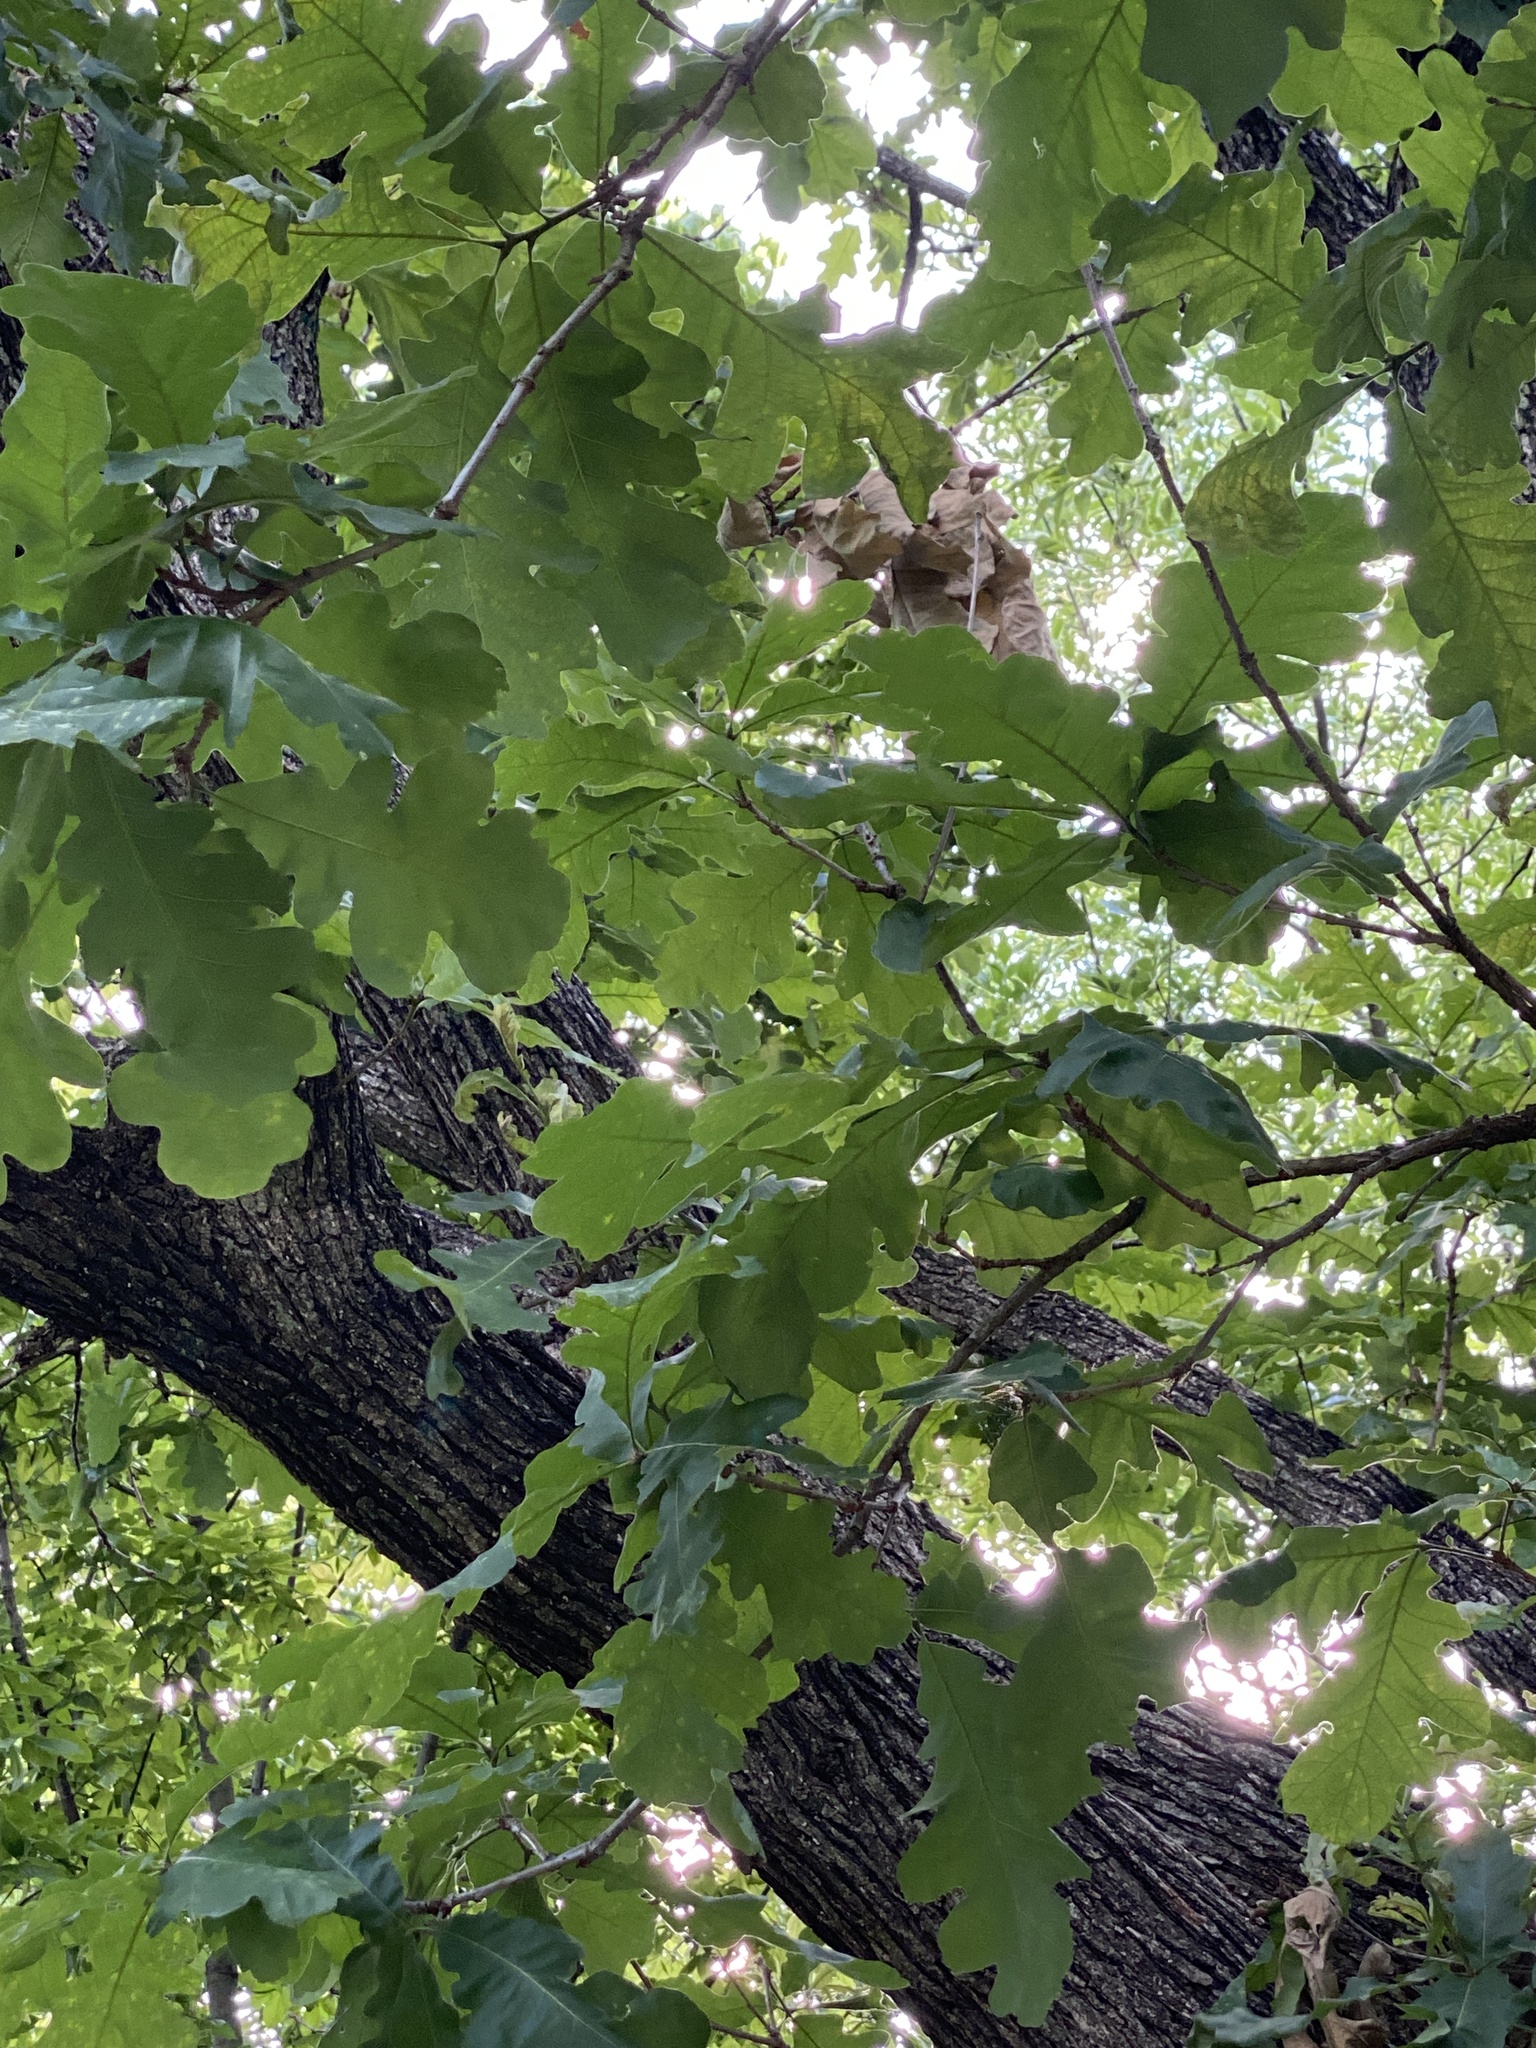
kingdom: Plantae
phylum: Tracheophyta
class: Magnoliopsida
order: Fagales
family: Fagaceae
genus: Quercus
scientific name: Quercus alba
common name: White oak
